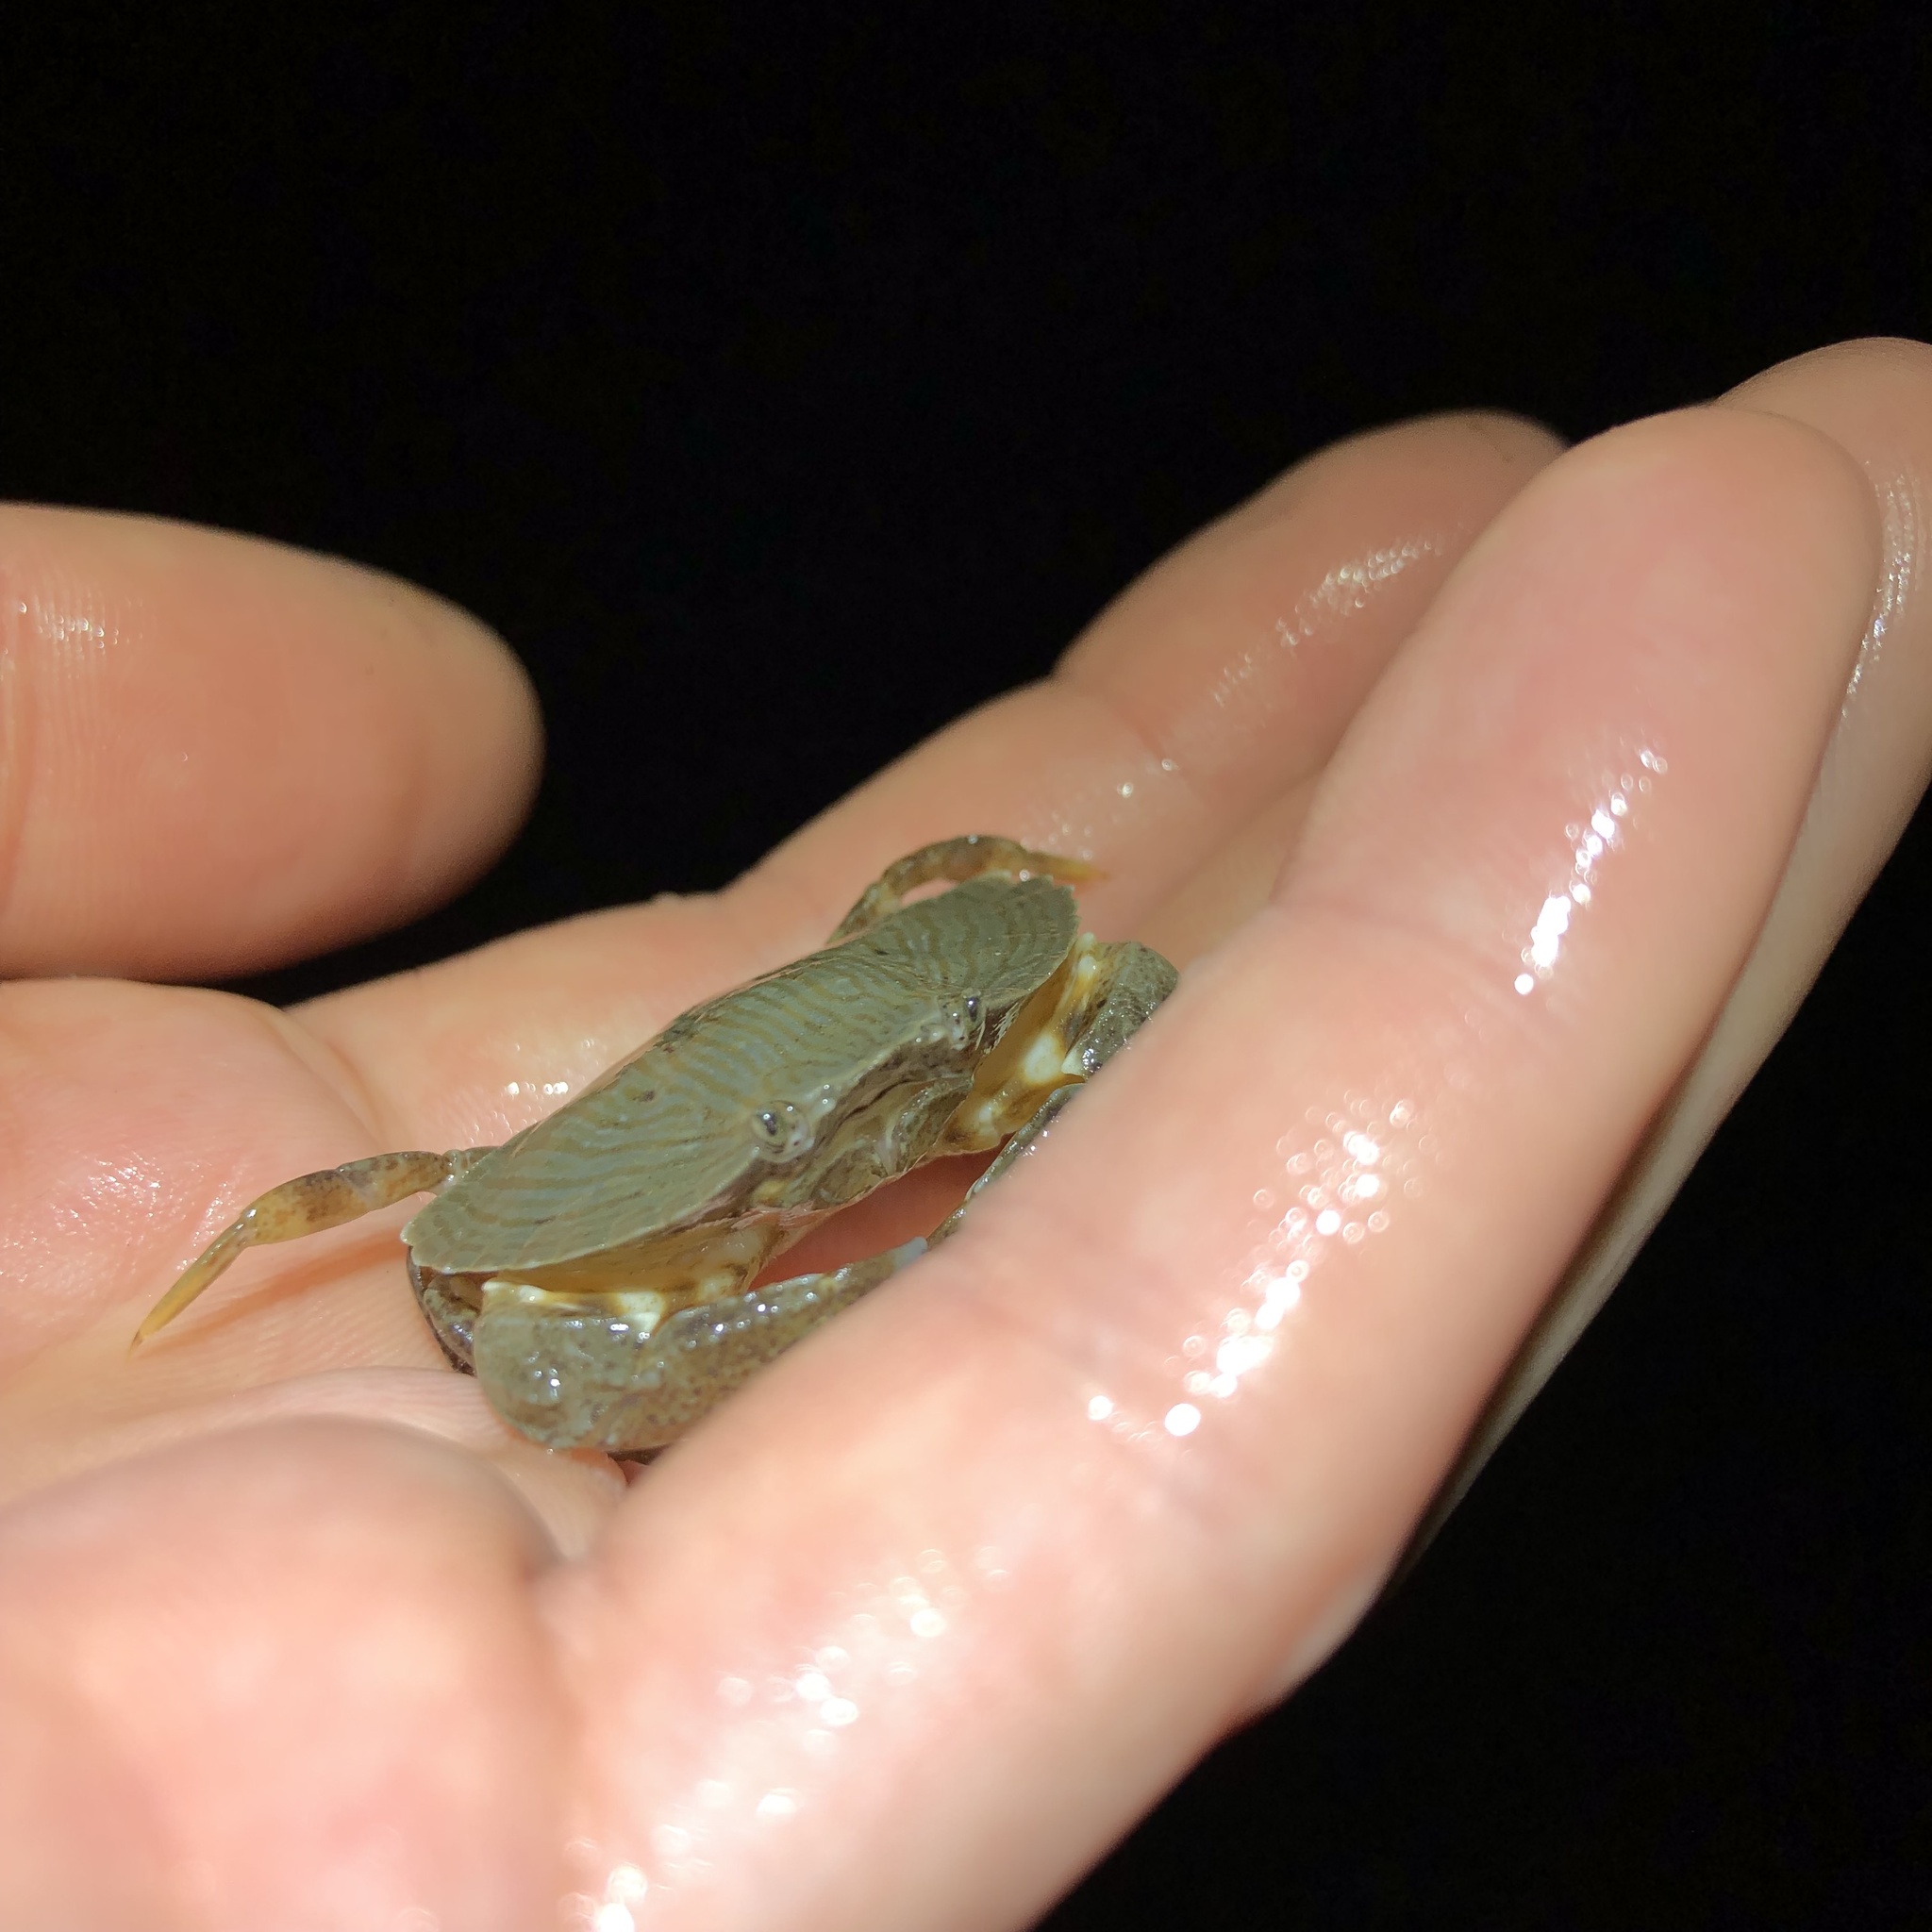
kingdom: Animalia
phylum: Arthropoda
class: Malacostraca
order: Decapoda
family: Cancridae
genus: Cancer
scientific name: Cancer productus
